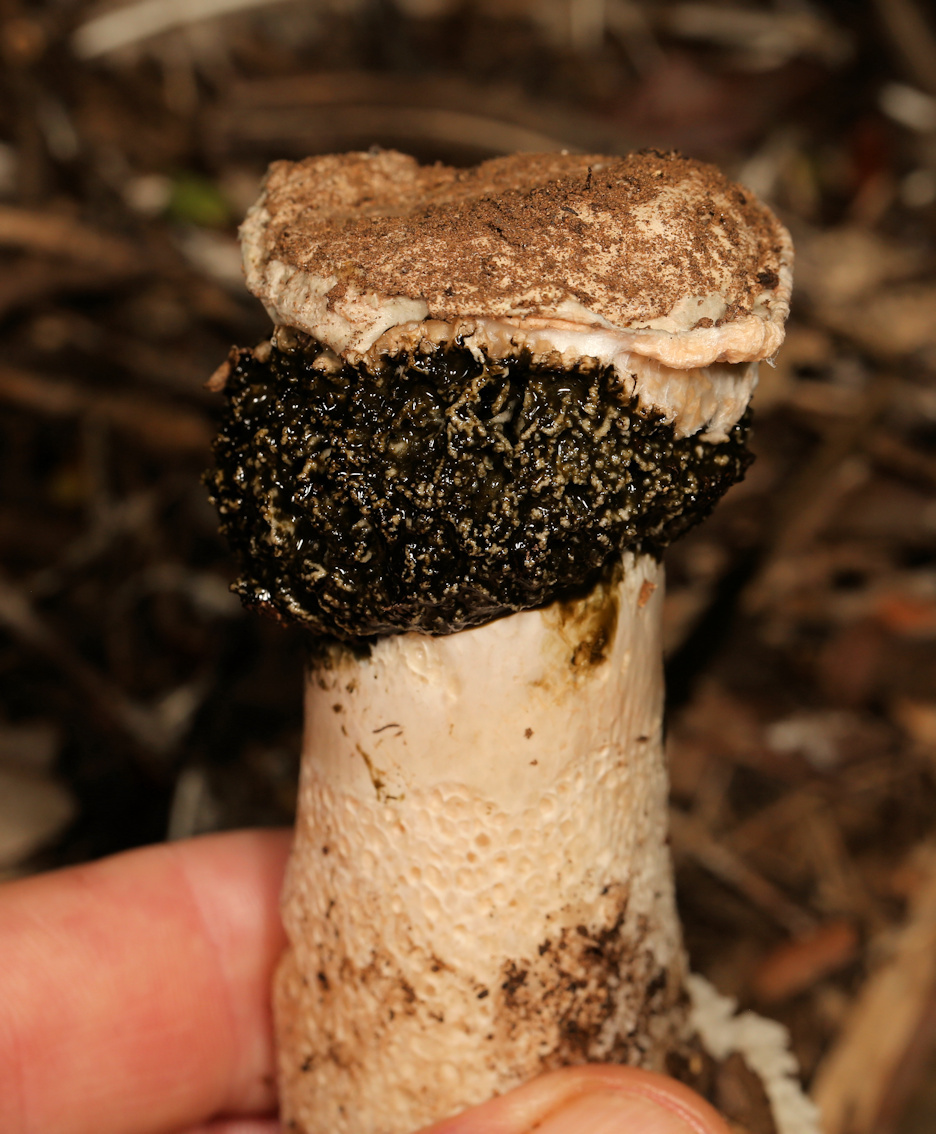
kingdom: Fungi
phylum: Basidiomycota
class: Agaricomycetes
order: Phallales
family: Phallaceae
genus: Itajahya
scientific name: Itajahya galericulata
